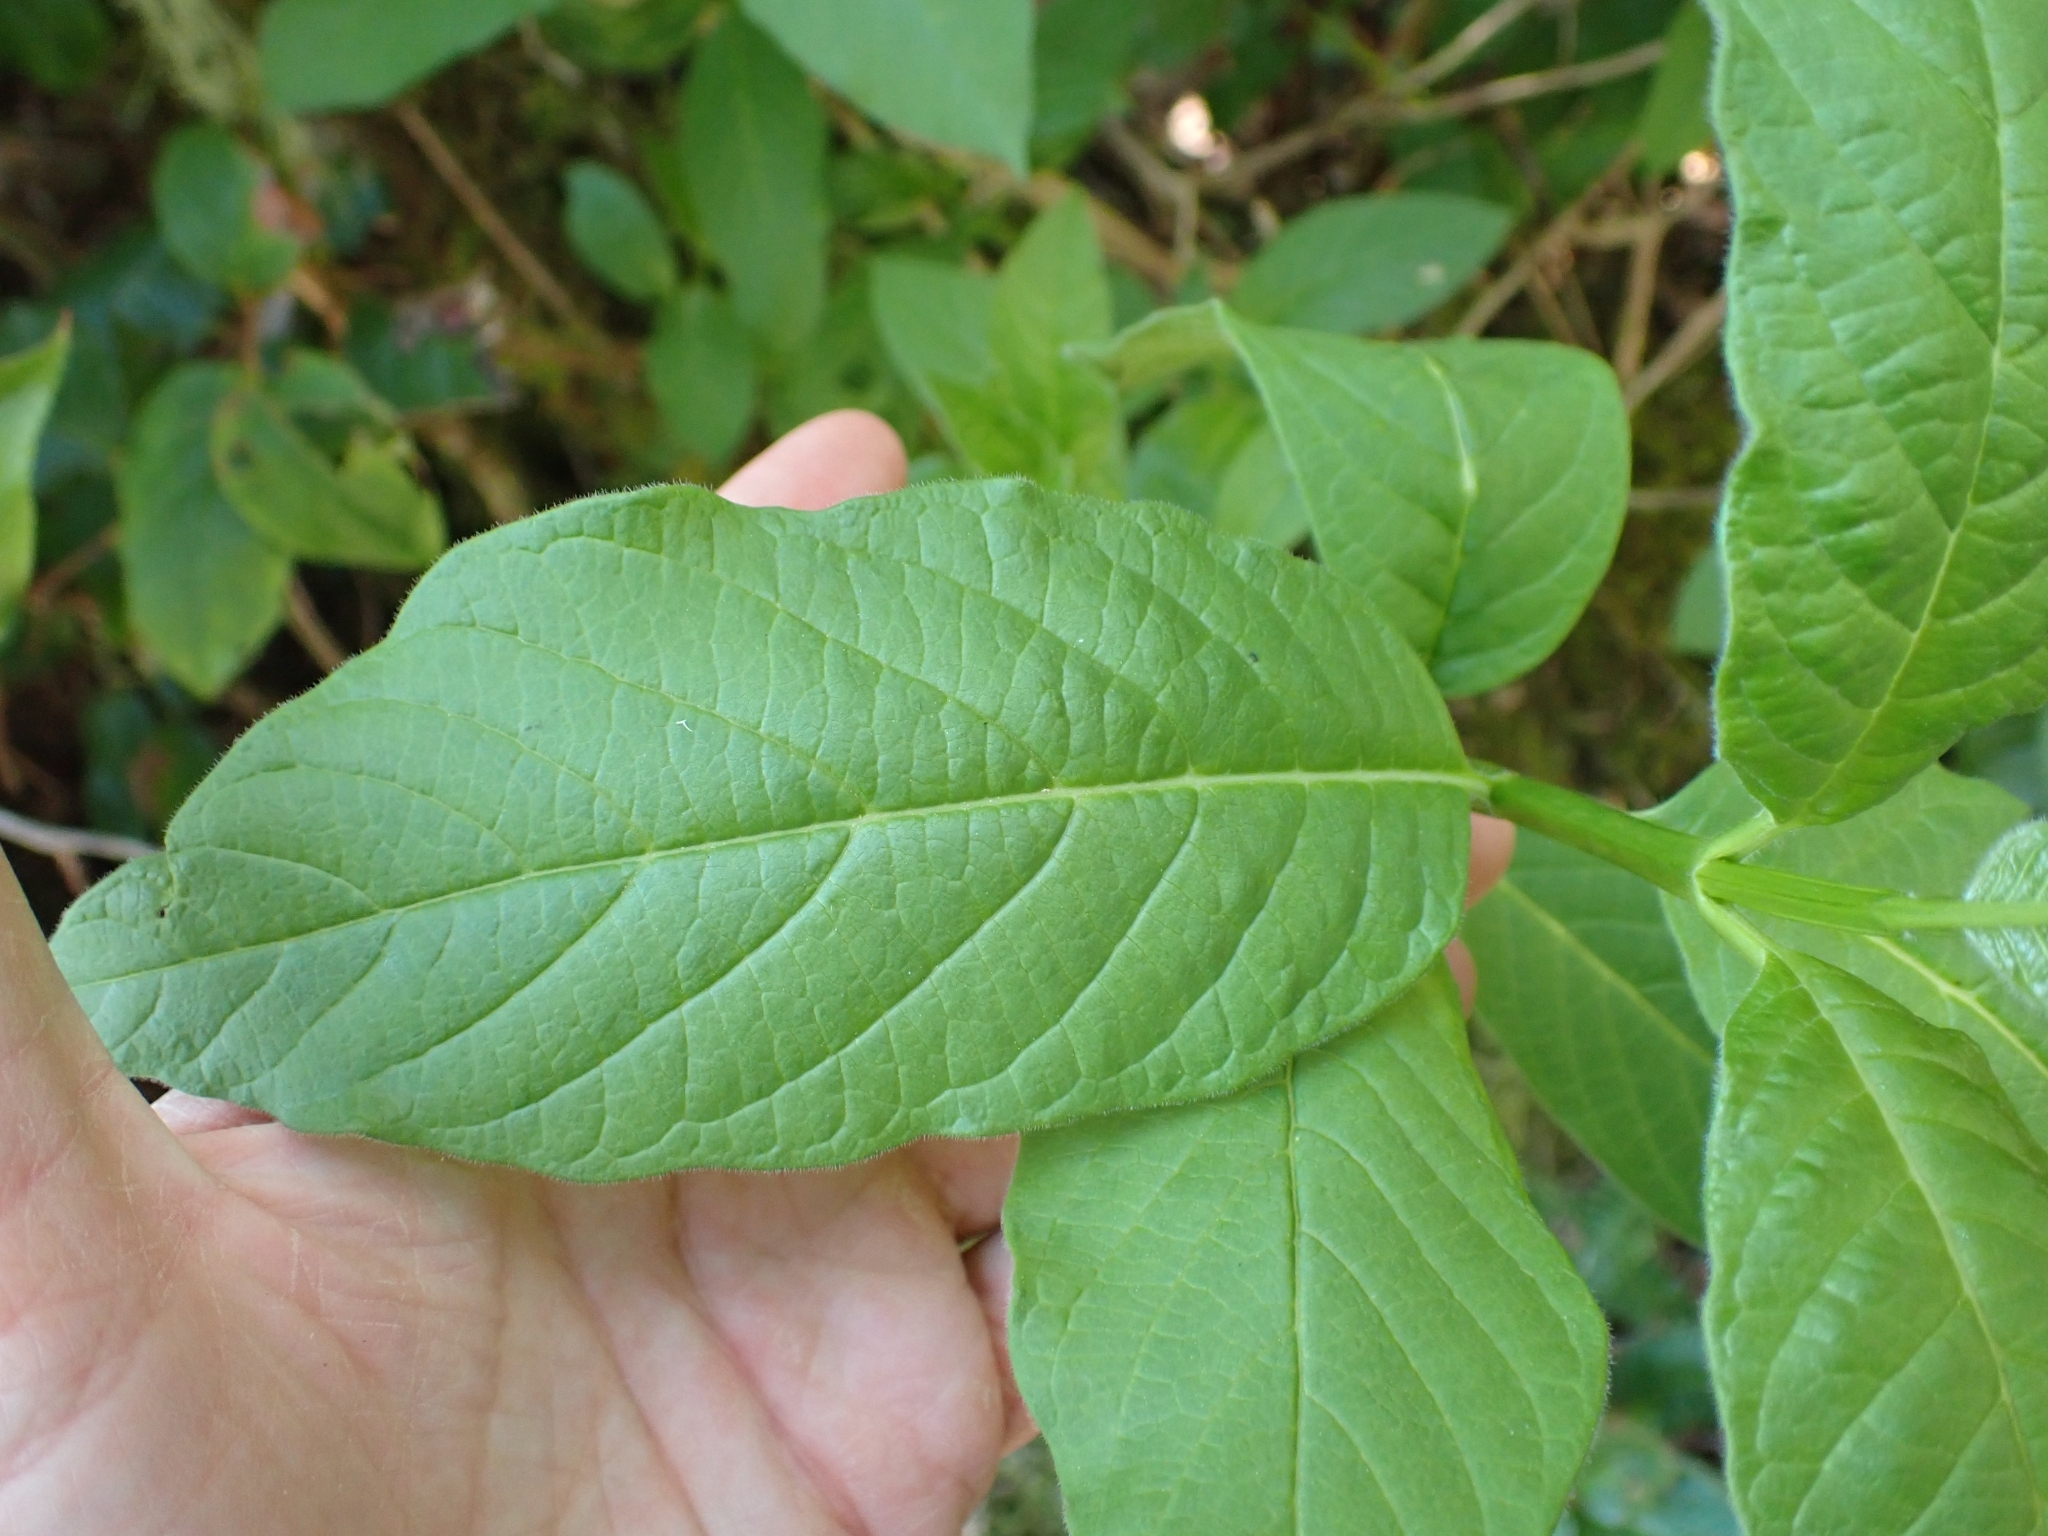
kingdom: Plantae
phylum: Tracheophyta
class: Magnoliopsida
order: Dipsacales
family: Caprifoliaceae
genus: Lonicera
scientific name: Lonicera involucrata
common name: Californian honeysuckle
